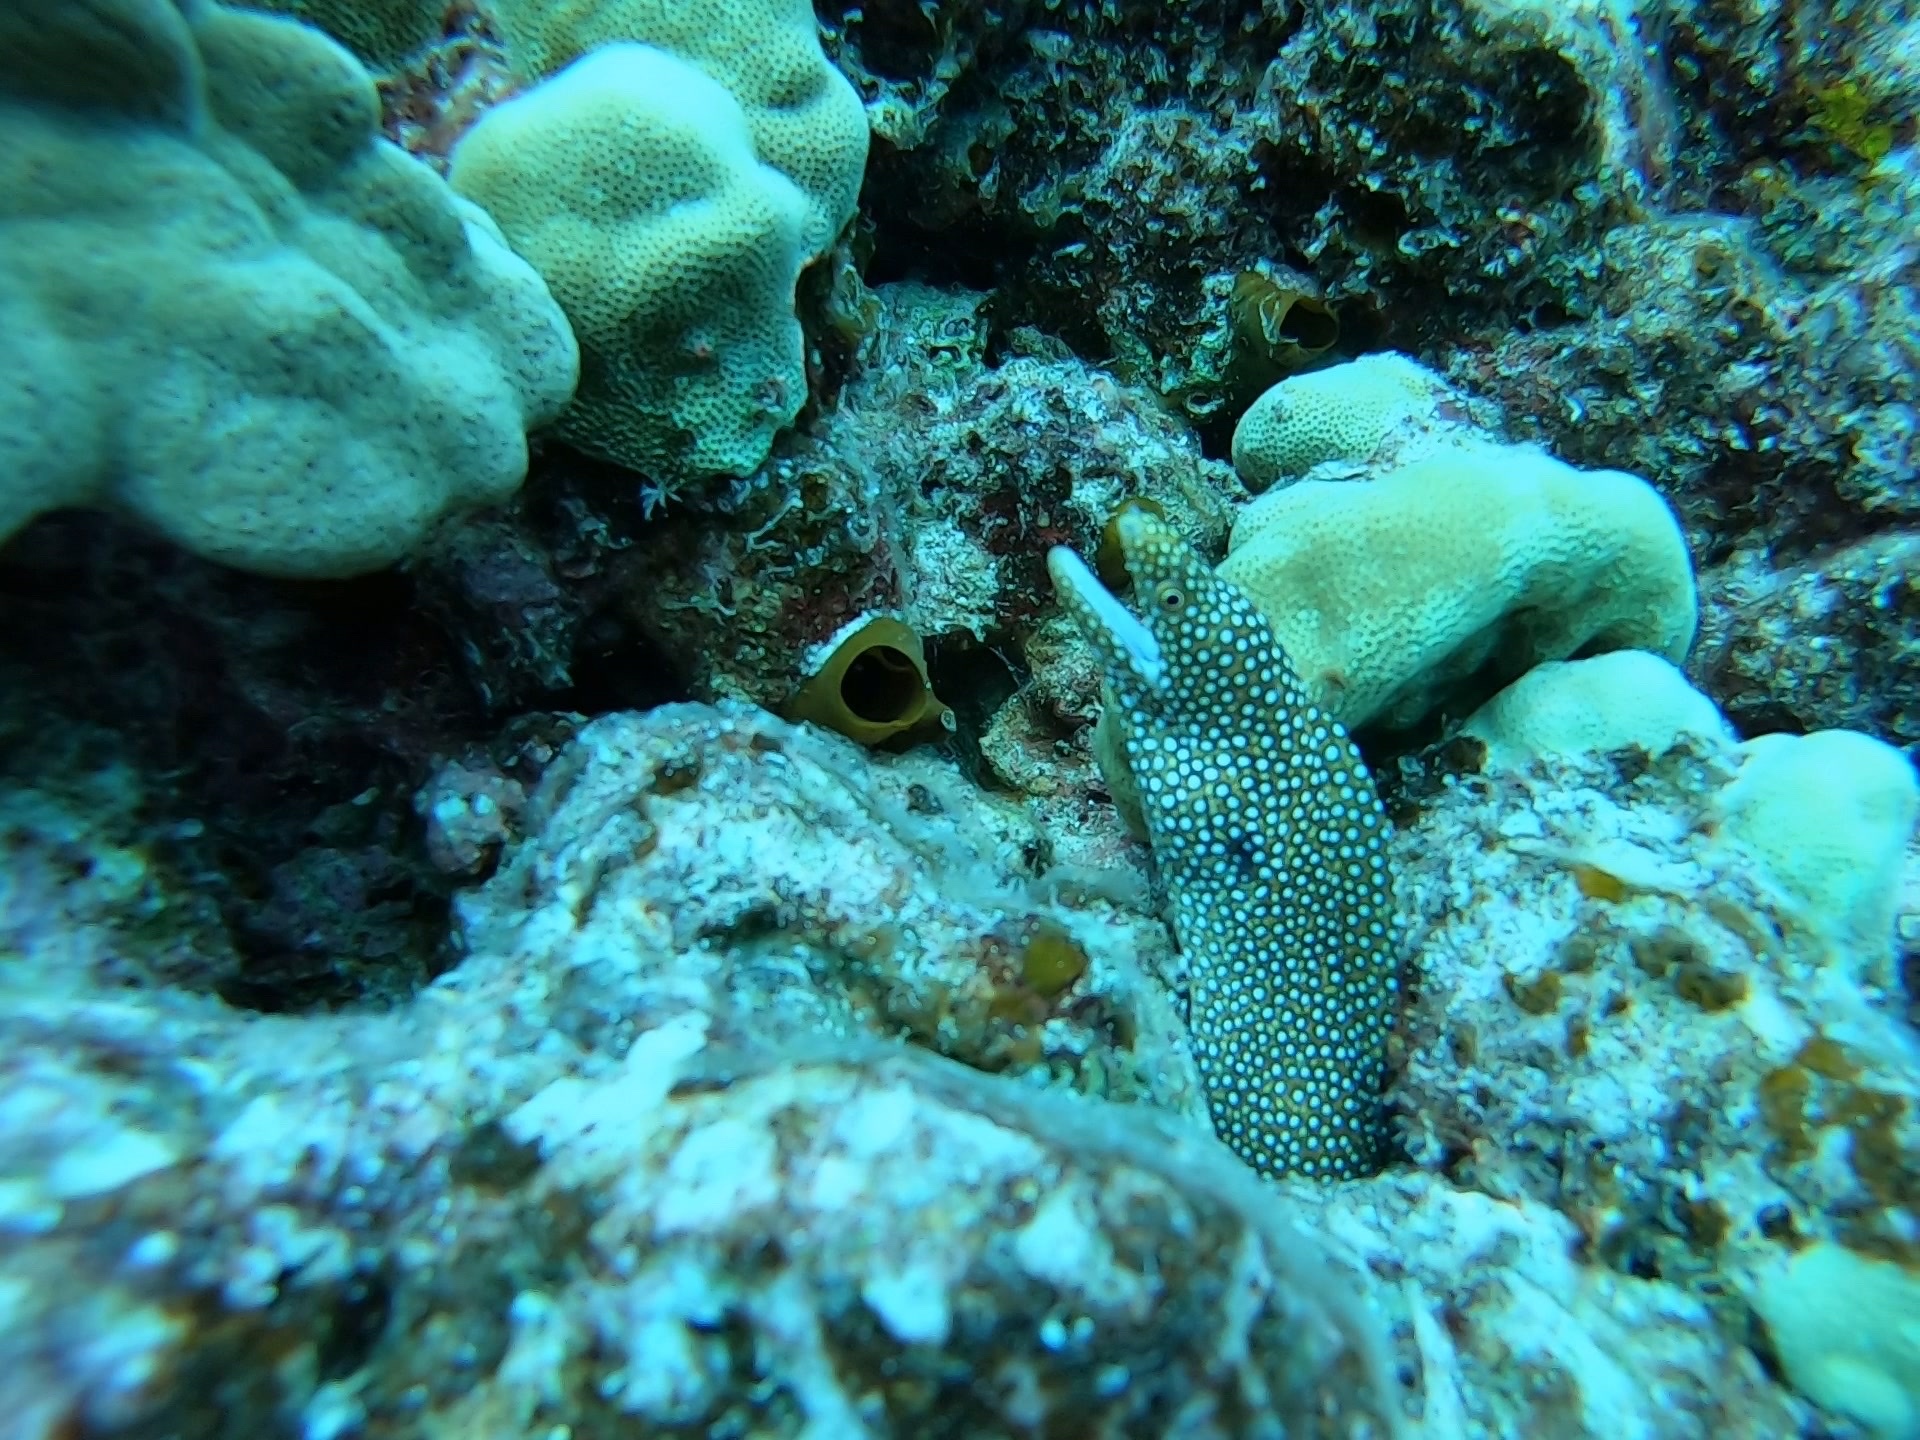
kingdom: Animalia
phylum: Chordata
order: Anguilliformes
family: Muraenidae
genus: Gymnothorax
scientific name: Gymnothorax meleagris
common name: Guineafowl moray
